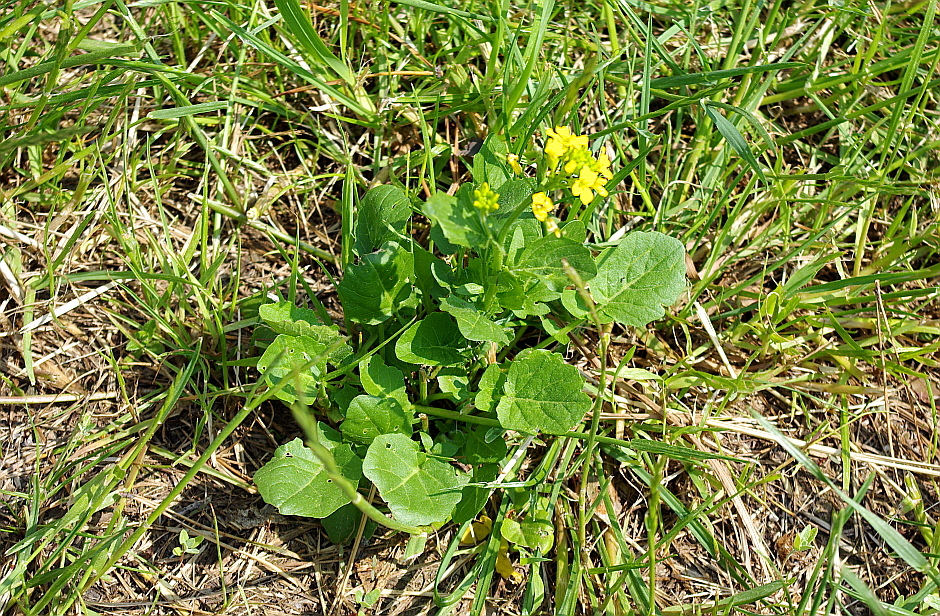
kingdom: Plantae
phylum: Tracheophyta
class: Magnoliopsida
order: Brassicales
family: Brassicaceae
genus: Barbarea
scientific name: Barbarea vulgaris
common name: Cressy-greens
